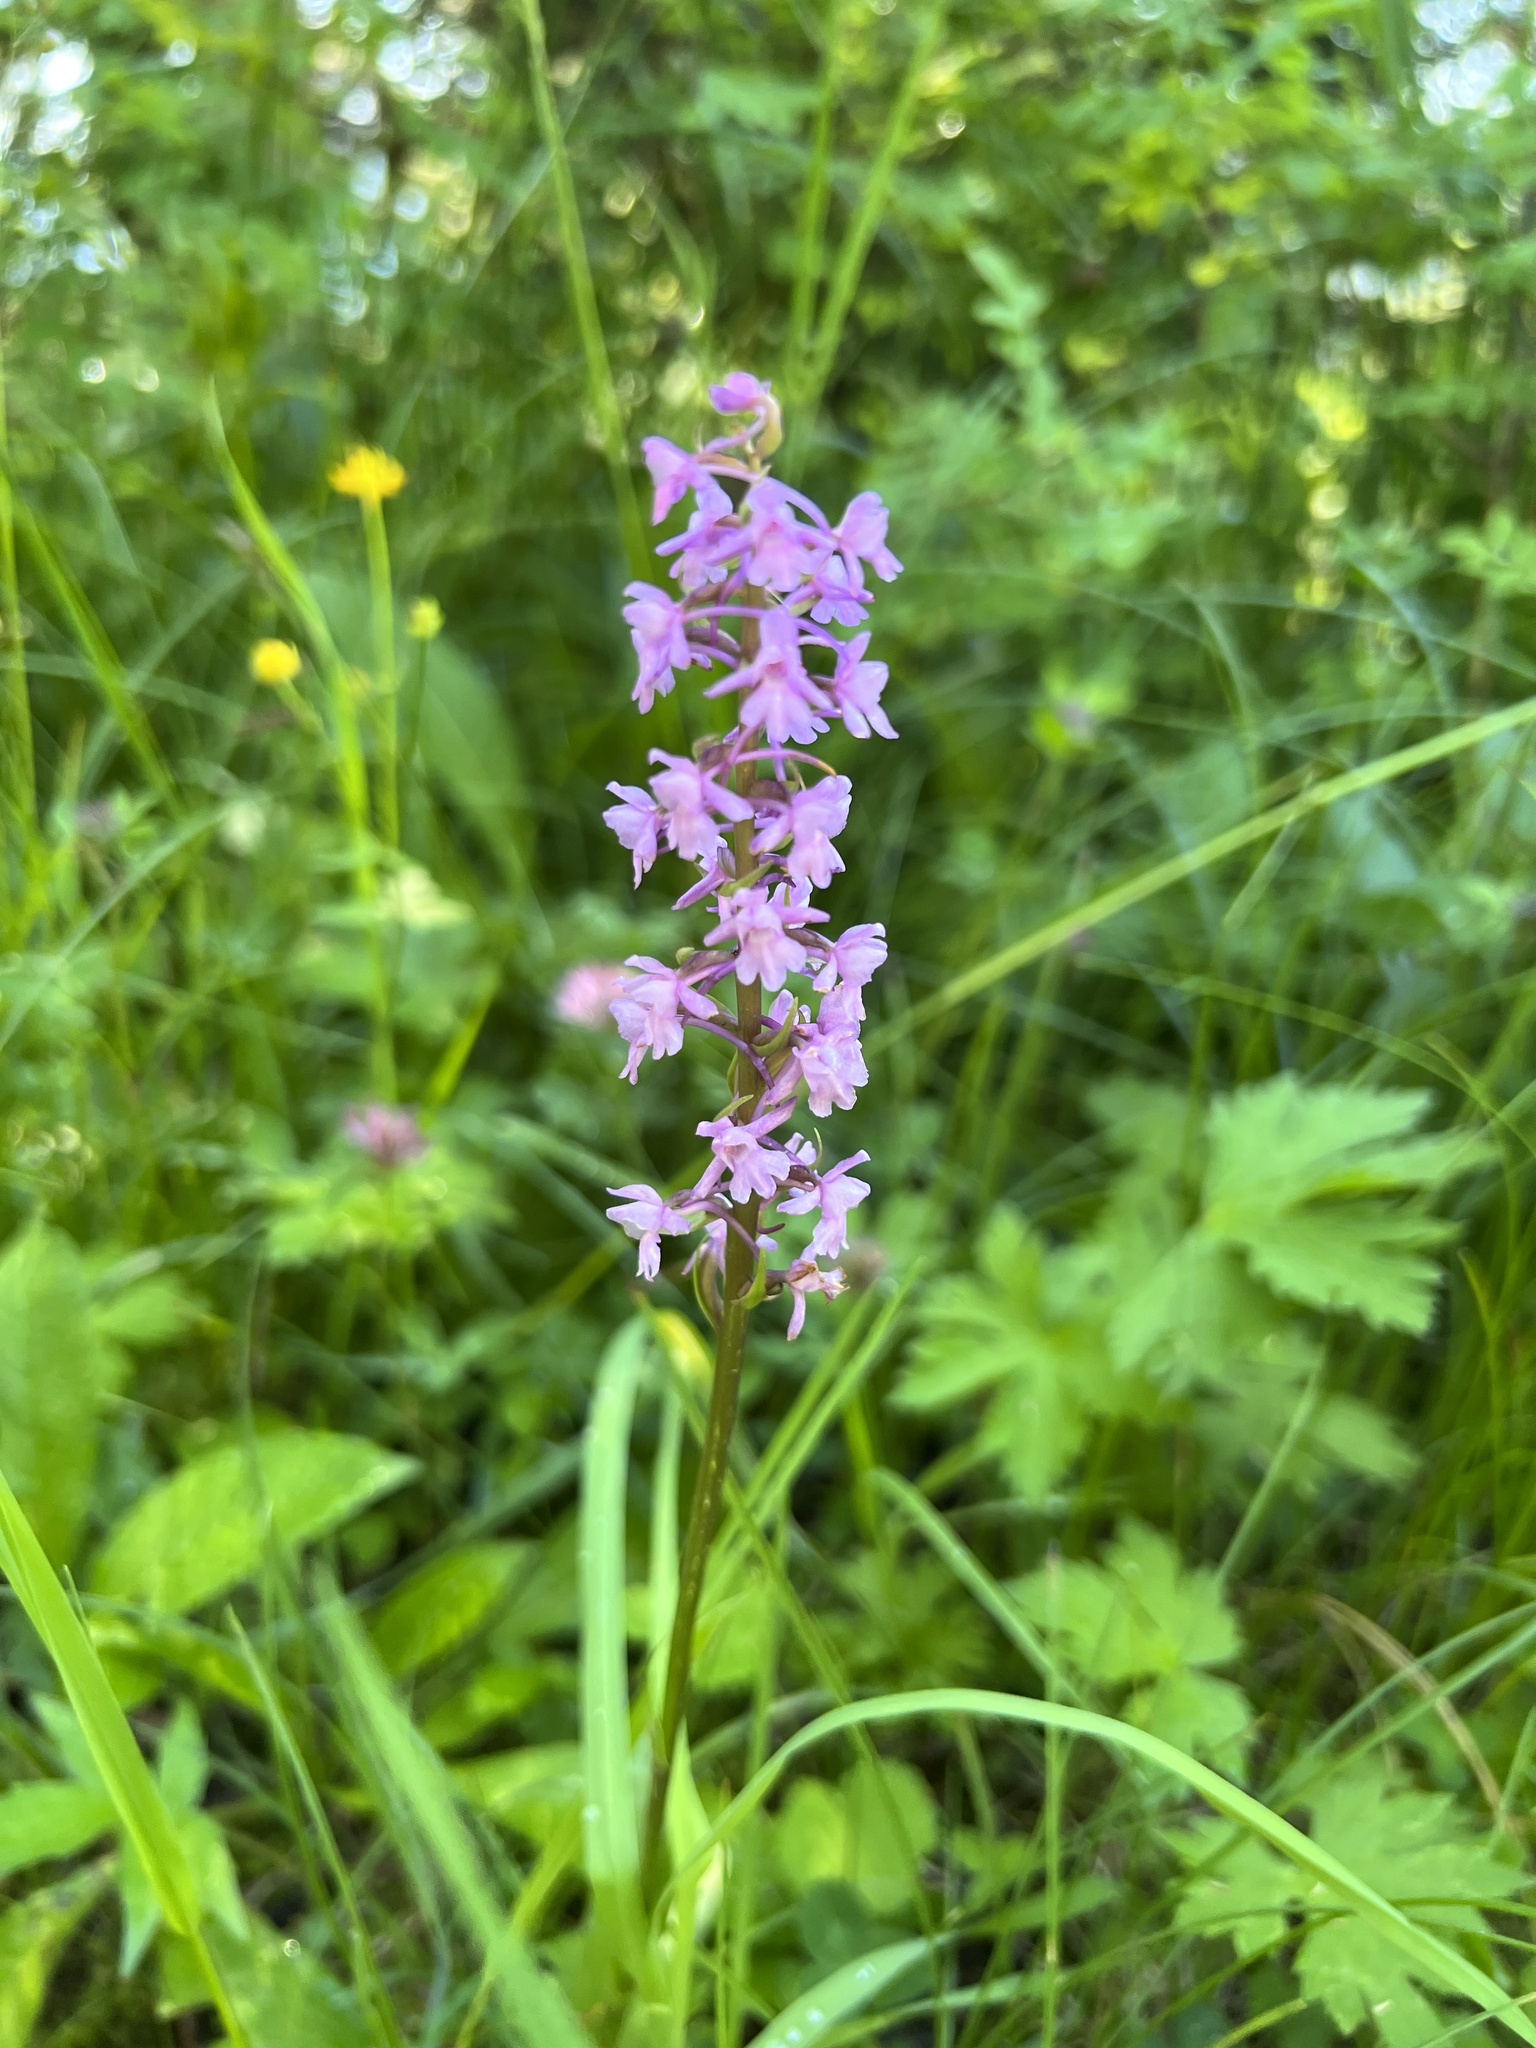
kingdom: Plantae
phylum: Tracheophyta
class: Liliopsida
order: Asparagales
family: Orchidaceae
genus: Gymnadenia
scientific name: Gymnadenia conopsea
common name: Fragrant orchid
